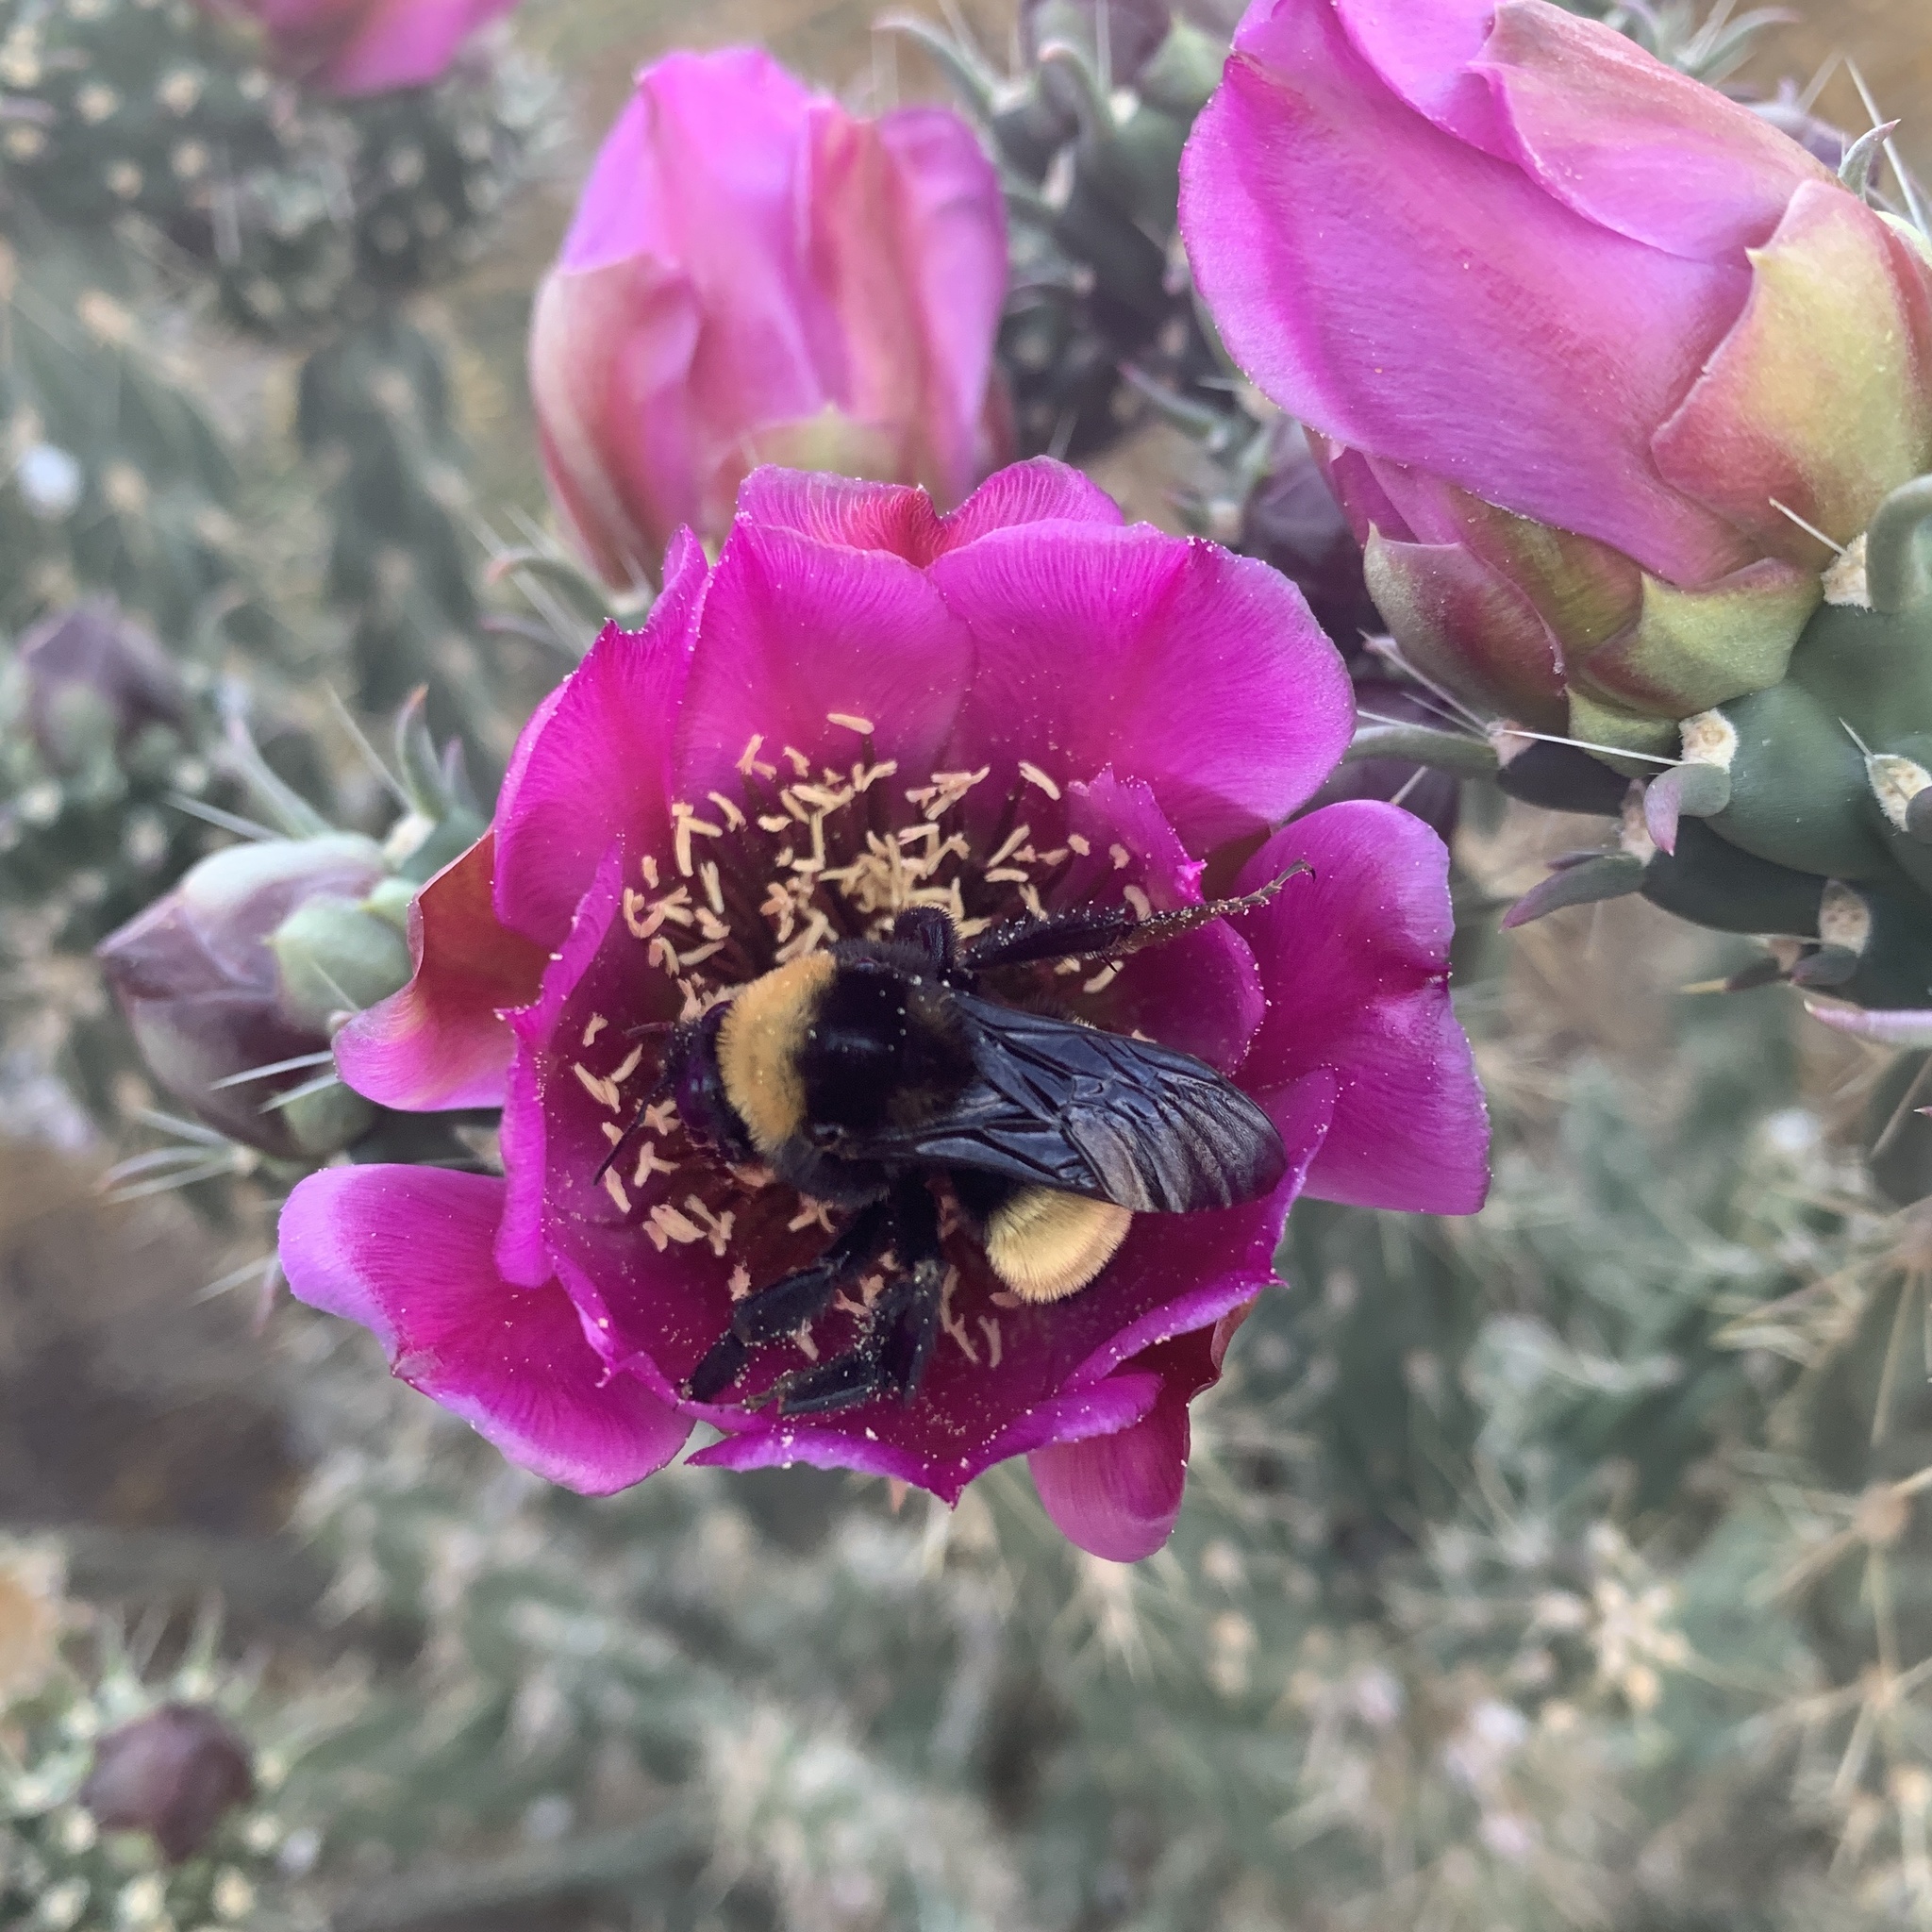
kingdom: Animalia
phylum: Arthropoda
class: Insecta
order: Hymenoptera
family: Apidae
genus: Bombus
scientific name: Bombus pensylvanicus
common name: Bumble bee
